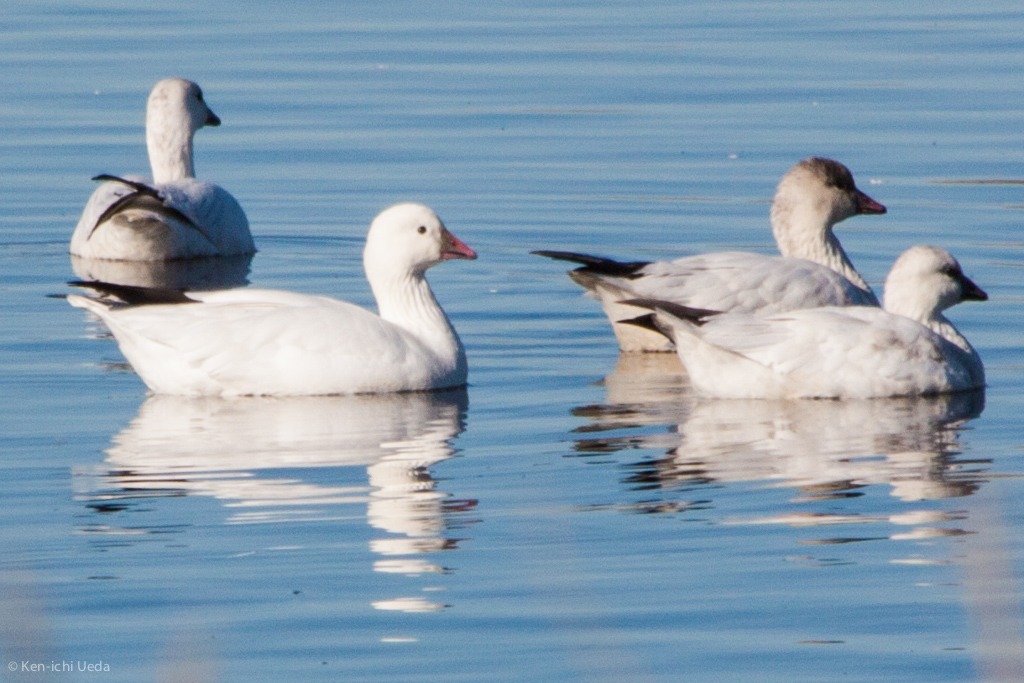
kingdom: Animalia
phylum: Chordata
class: Aves
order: Anseriformes
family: Anatidae
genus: Anser
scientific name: Anser rossii
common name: Ross's goose
